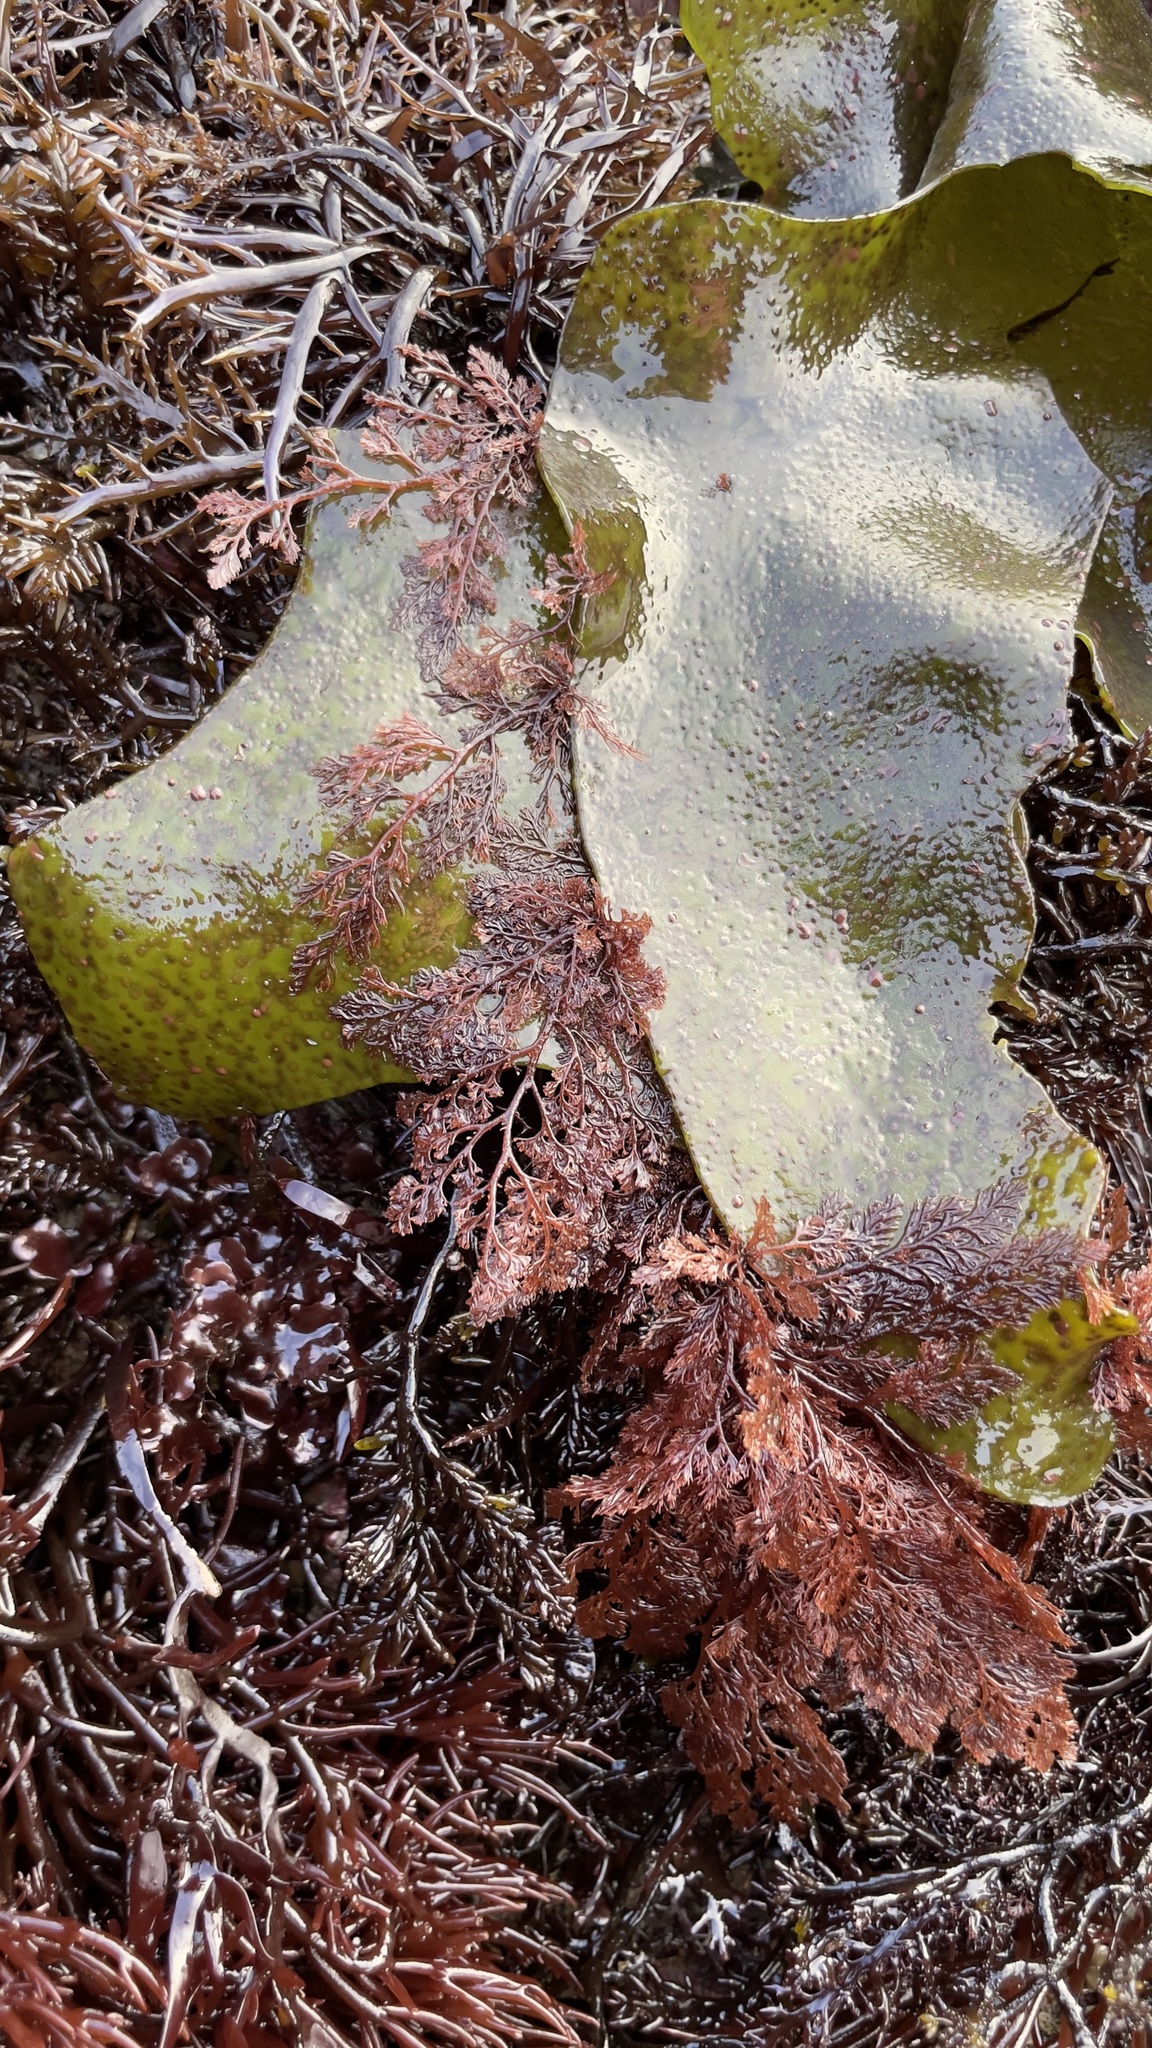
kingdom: Plantae
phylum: Rhodophyta
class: Florideophyceae
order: Ceramiales
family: Ceramiaceae
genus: Microcladia
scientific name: Microcladia coulteri
